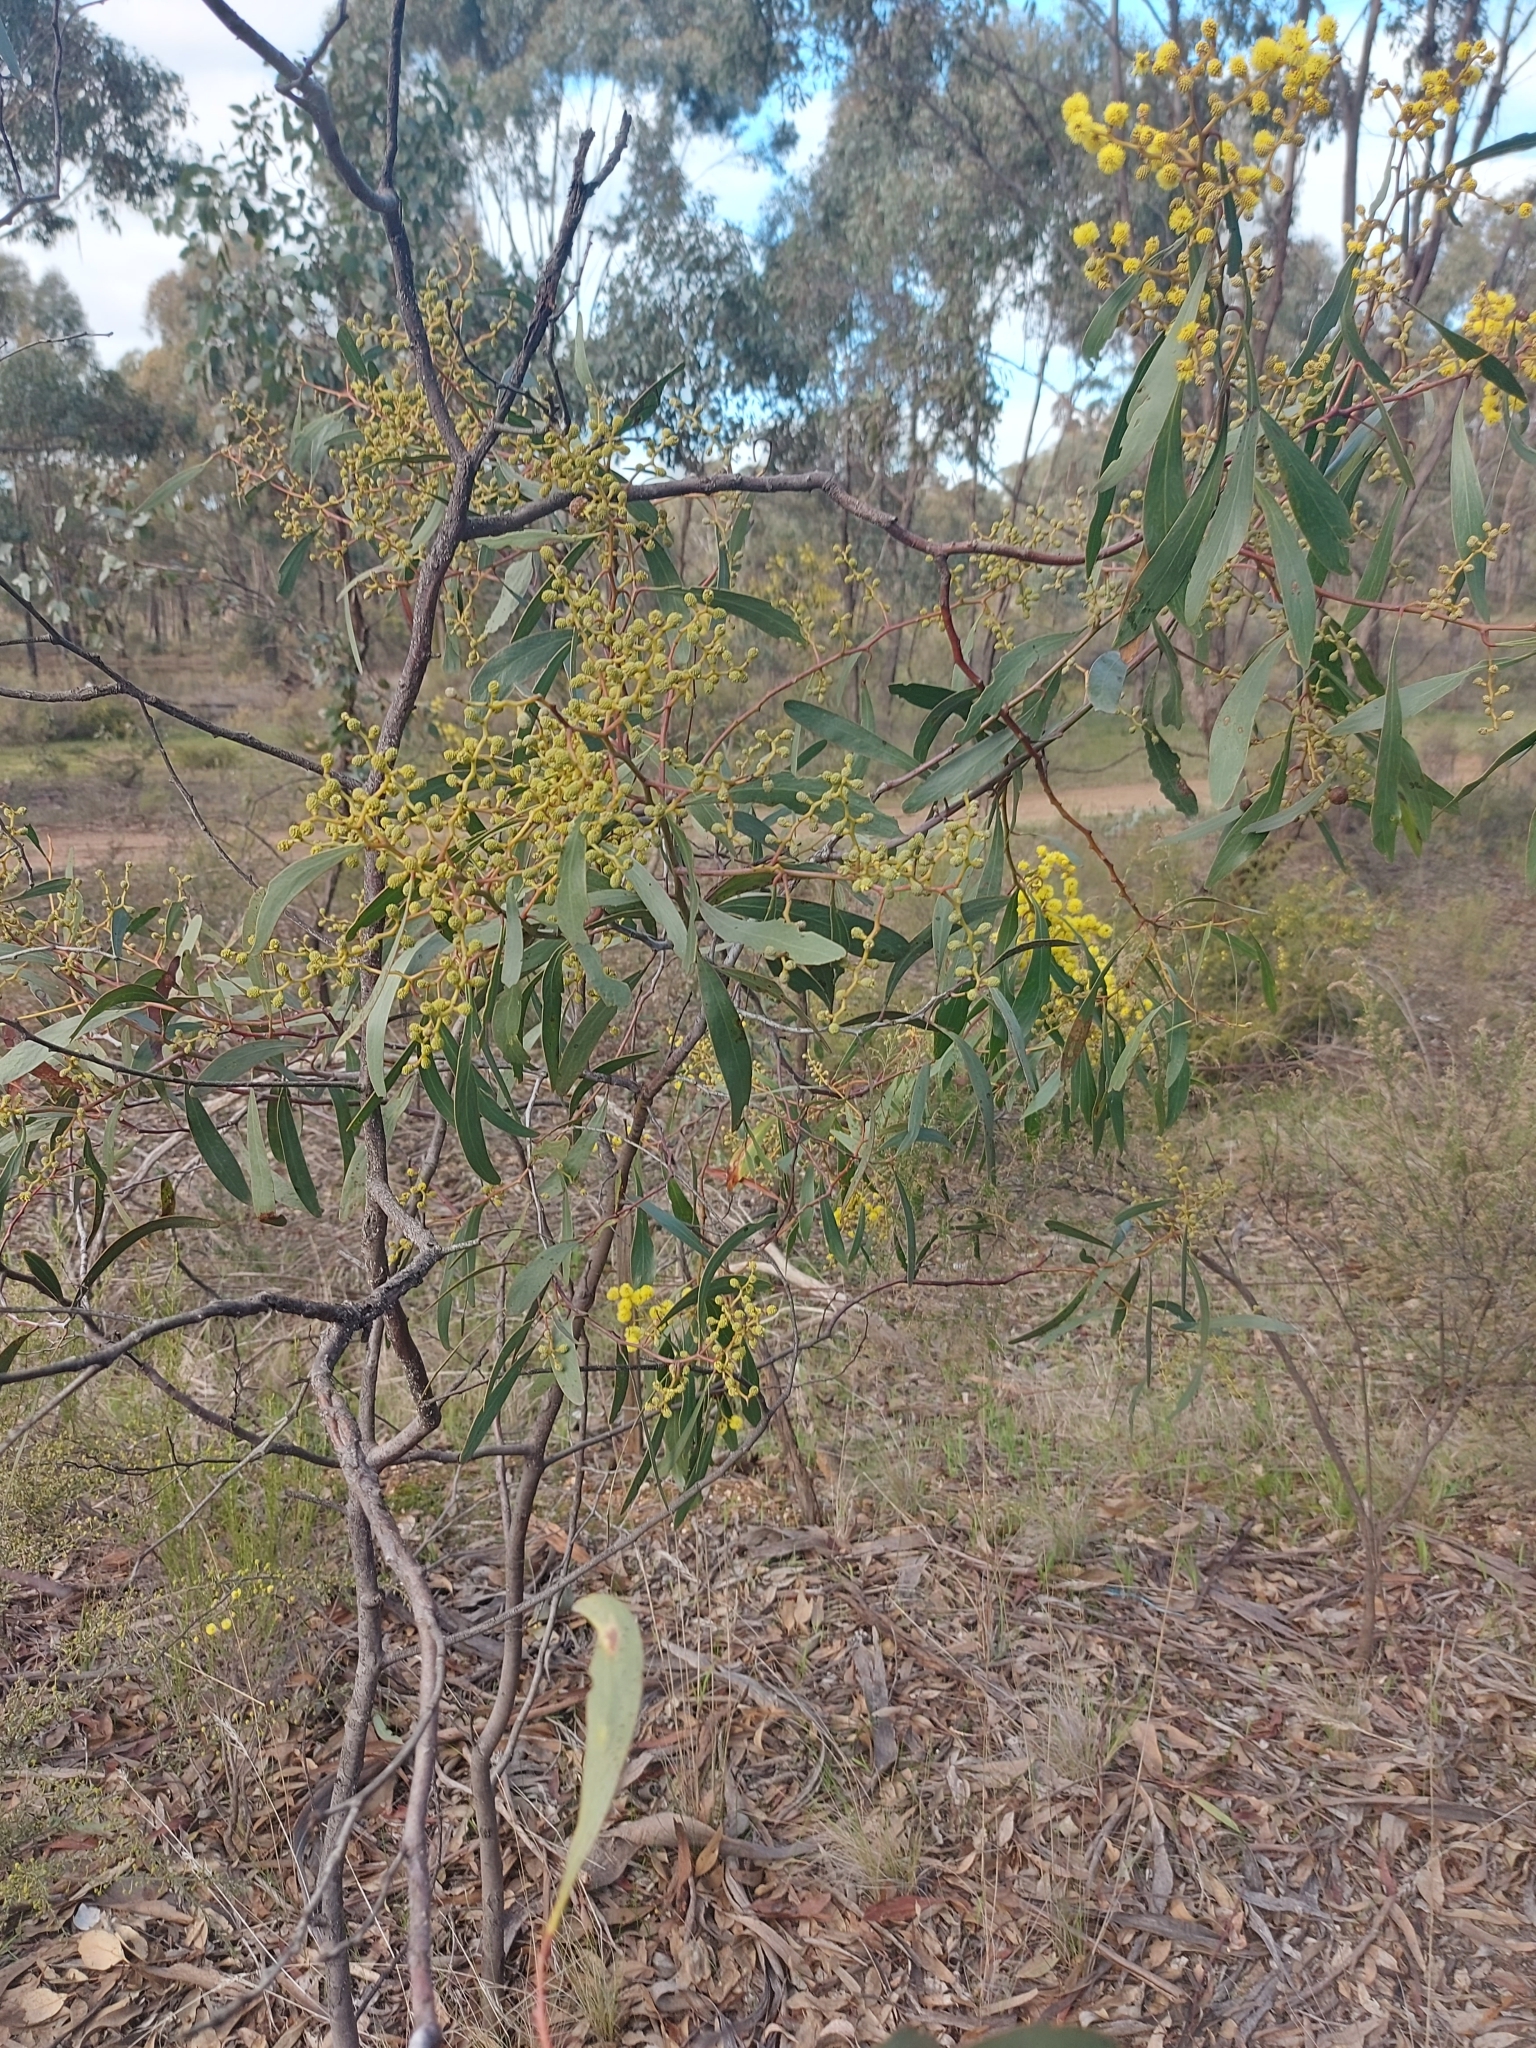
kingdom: Plantae
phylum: Tracheophyta
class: Magnoliopsida
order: Fabales
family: Fabaceae
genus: Acacia
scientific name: Acacia pycnantha
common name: Golden wattle
